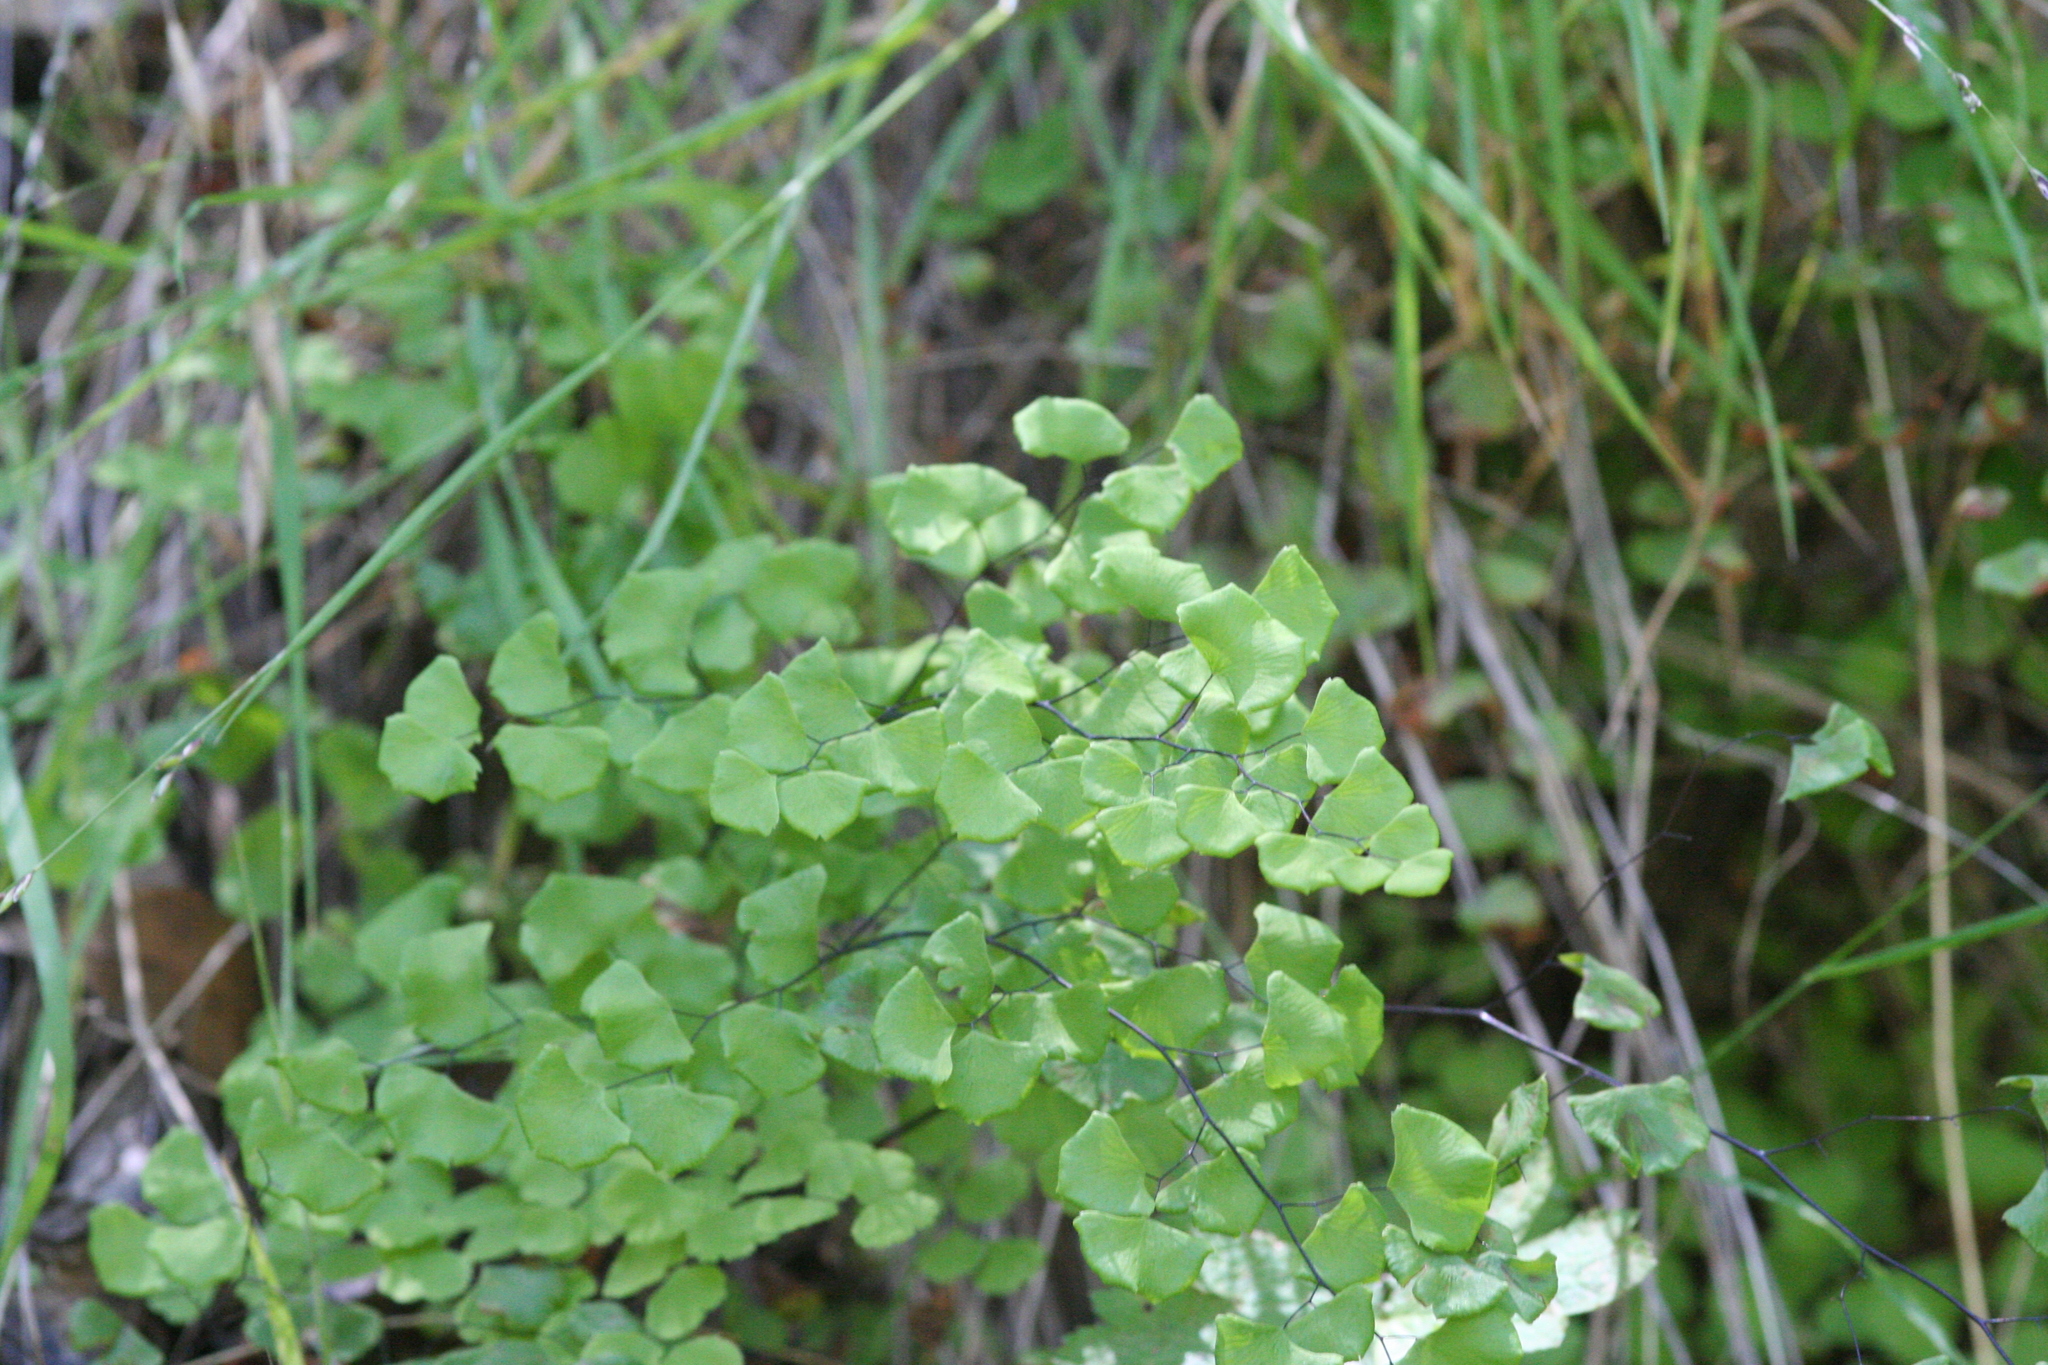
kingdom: Plantae
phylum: Tracheophyta
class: Polypodiopsida
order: Polypodiales
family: Pteridaceae
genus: Adiantum
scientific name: Adiantum jordanii
